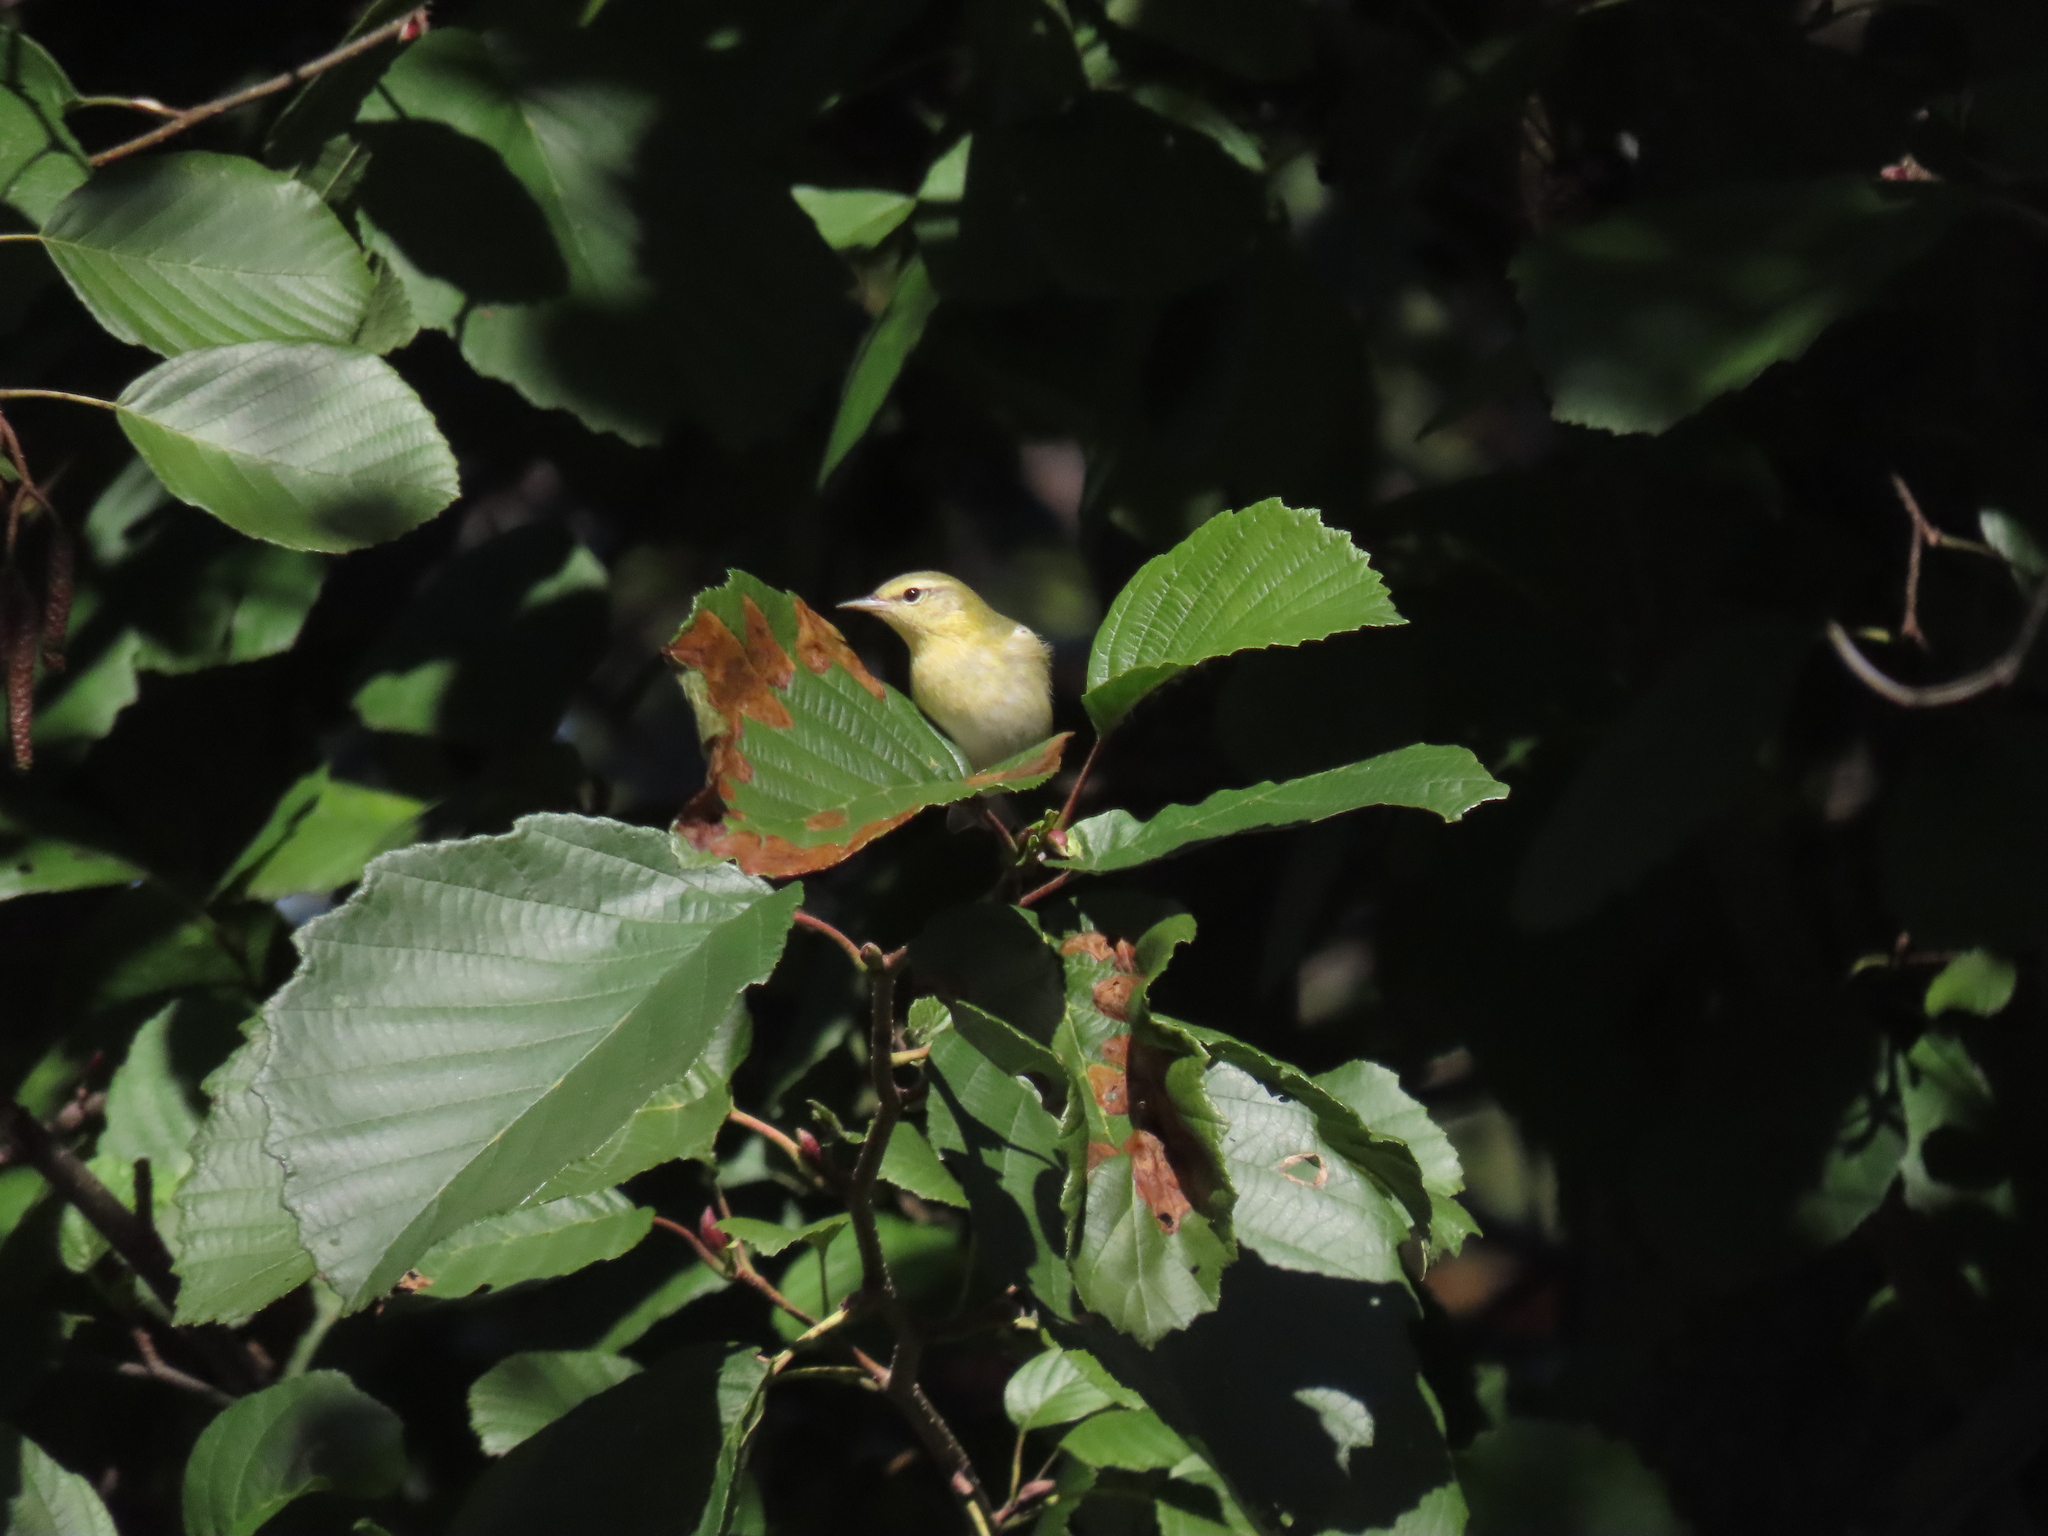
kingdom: Animalia
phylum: Chordata
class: Aves
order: Passeriformes
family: Parulidae
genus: Leiothlypis
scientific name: Leiothlypis peregrina
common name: Tennessee warbler
